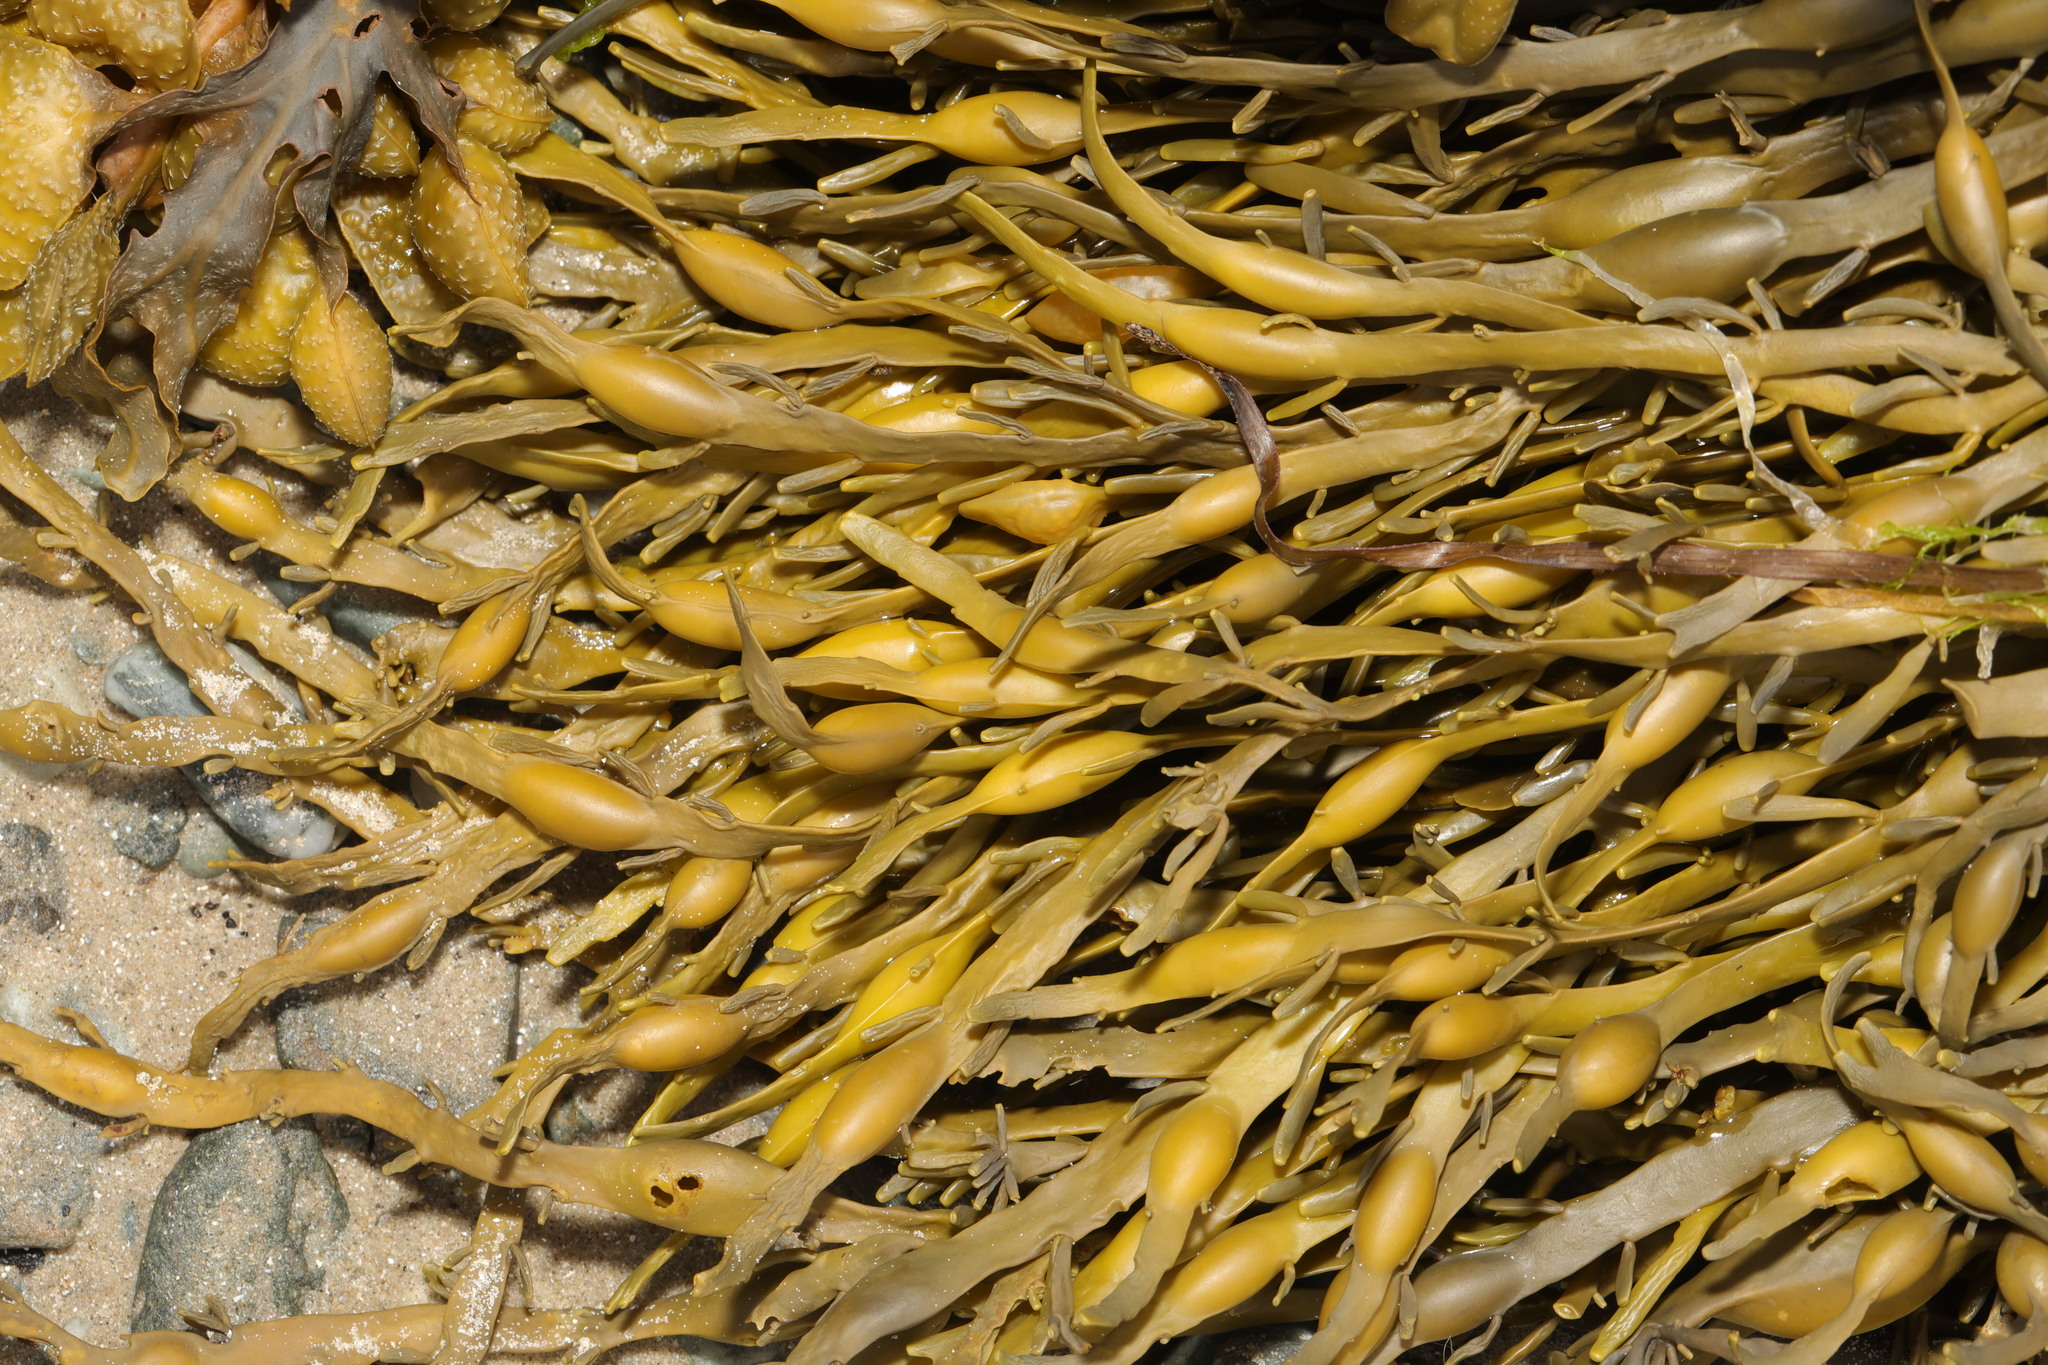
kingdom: Chromista
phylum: Ochrophyta
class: Phaeophyceae
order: Fucales
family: Fucaceae
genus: Ascophyllum
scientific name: Ascophyllum nodosum
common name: Knotted wrack
